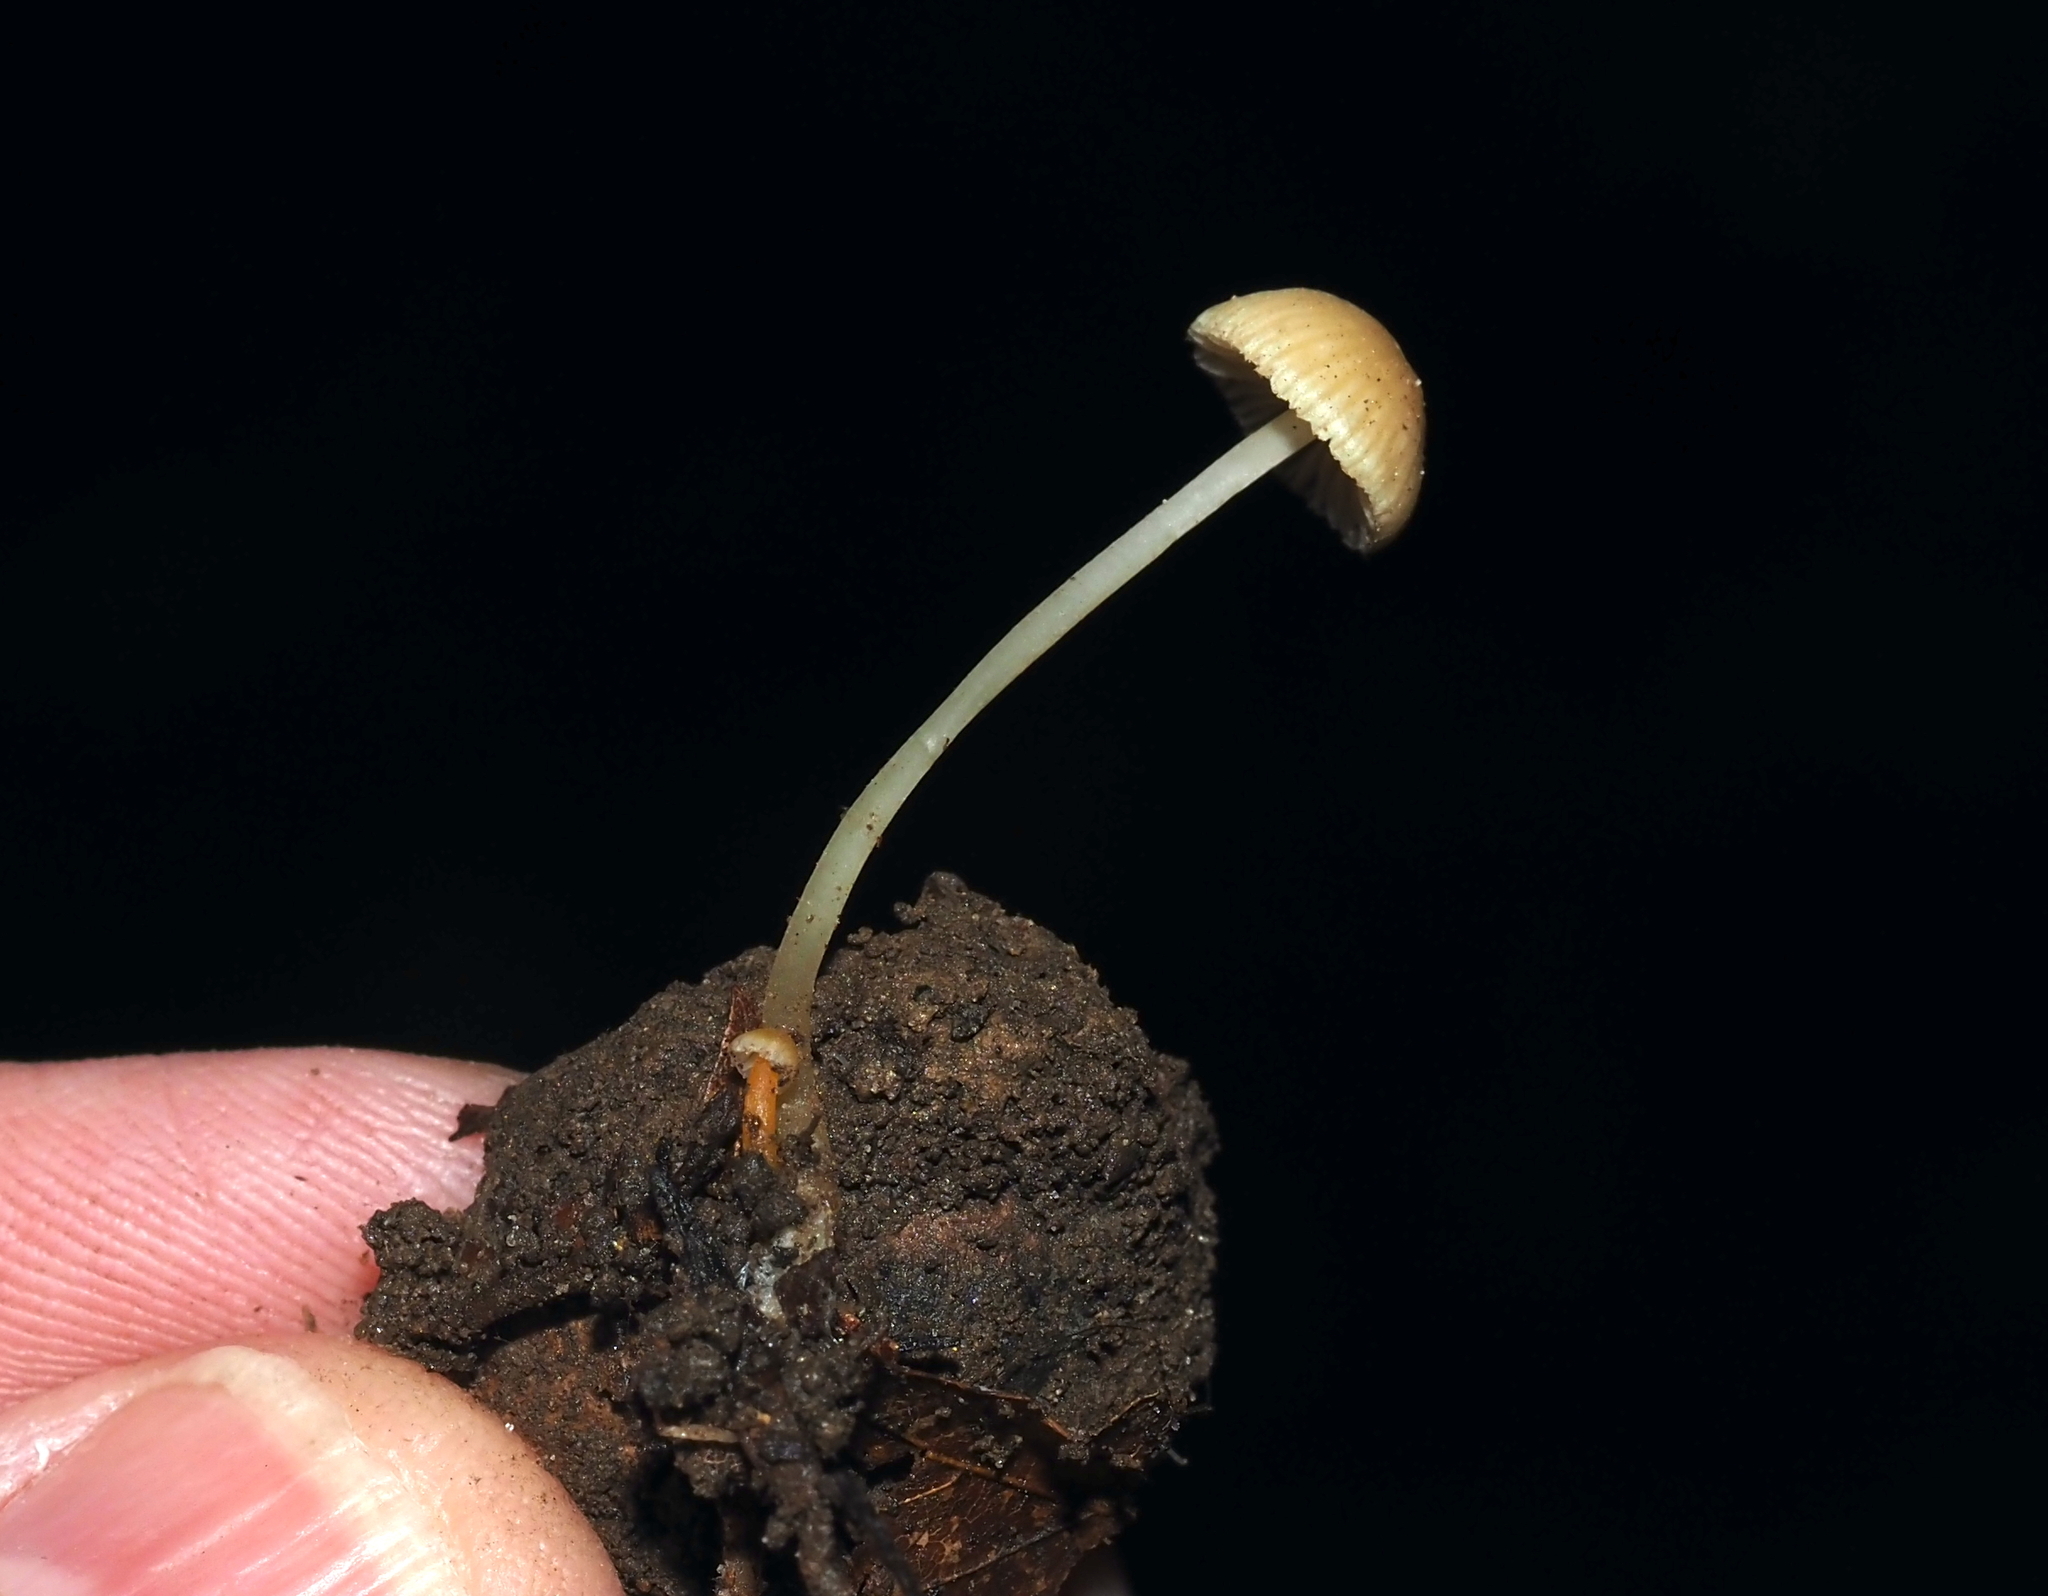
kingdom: Fungi
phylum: Basidiomycota
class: Agaricomycetes
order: Agaricales
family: Mycenaceae
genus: Mycena
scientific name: Mycena crocea
